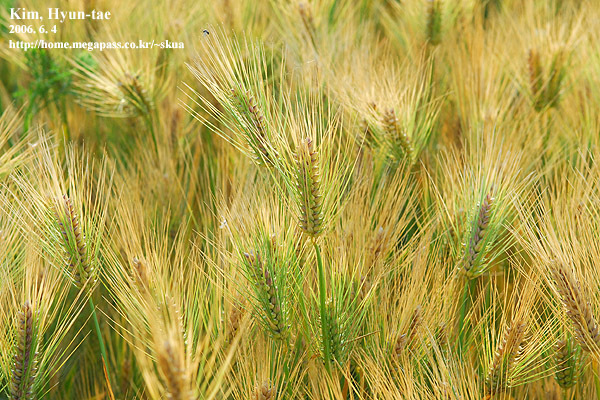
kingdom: Plantae
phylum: Tracheophyta
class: Liliopsida
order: Poales
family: Poaceae
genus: Hordeum
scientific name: Hordeum vulgare
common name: Common barley
